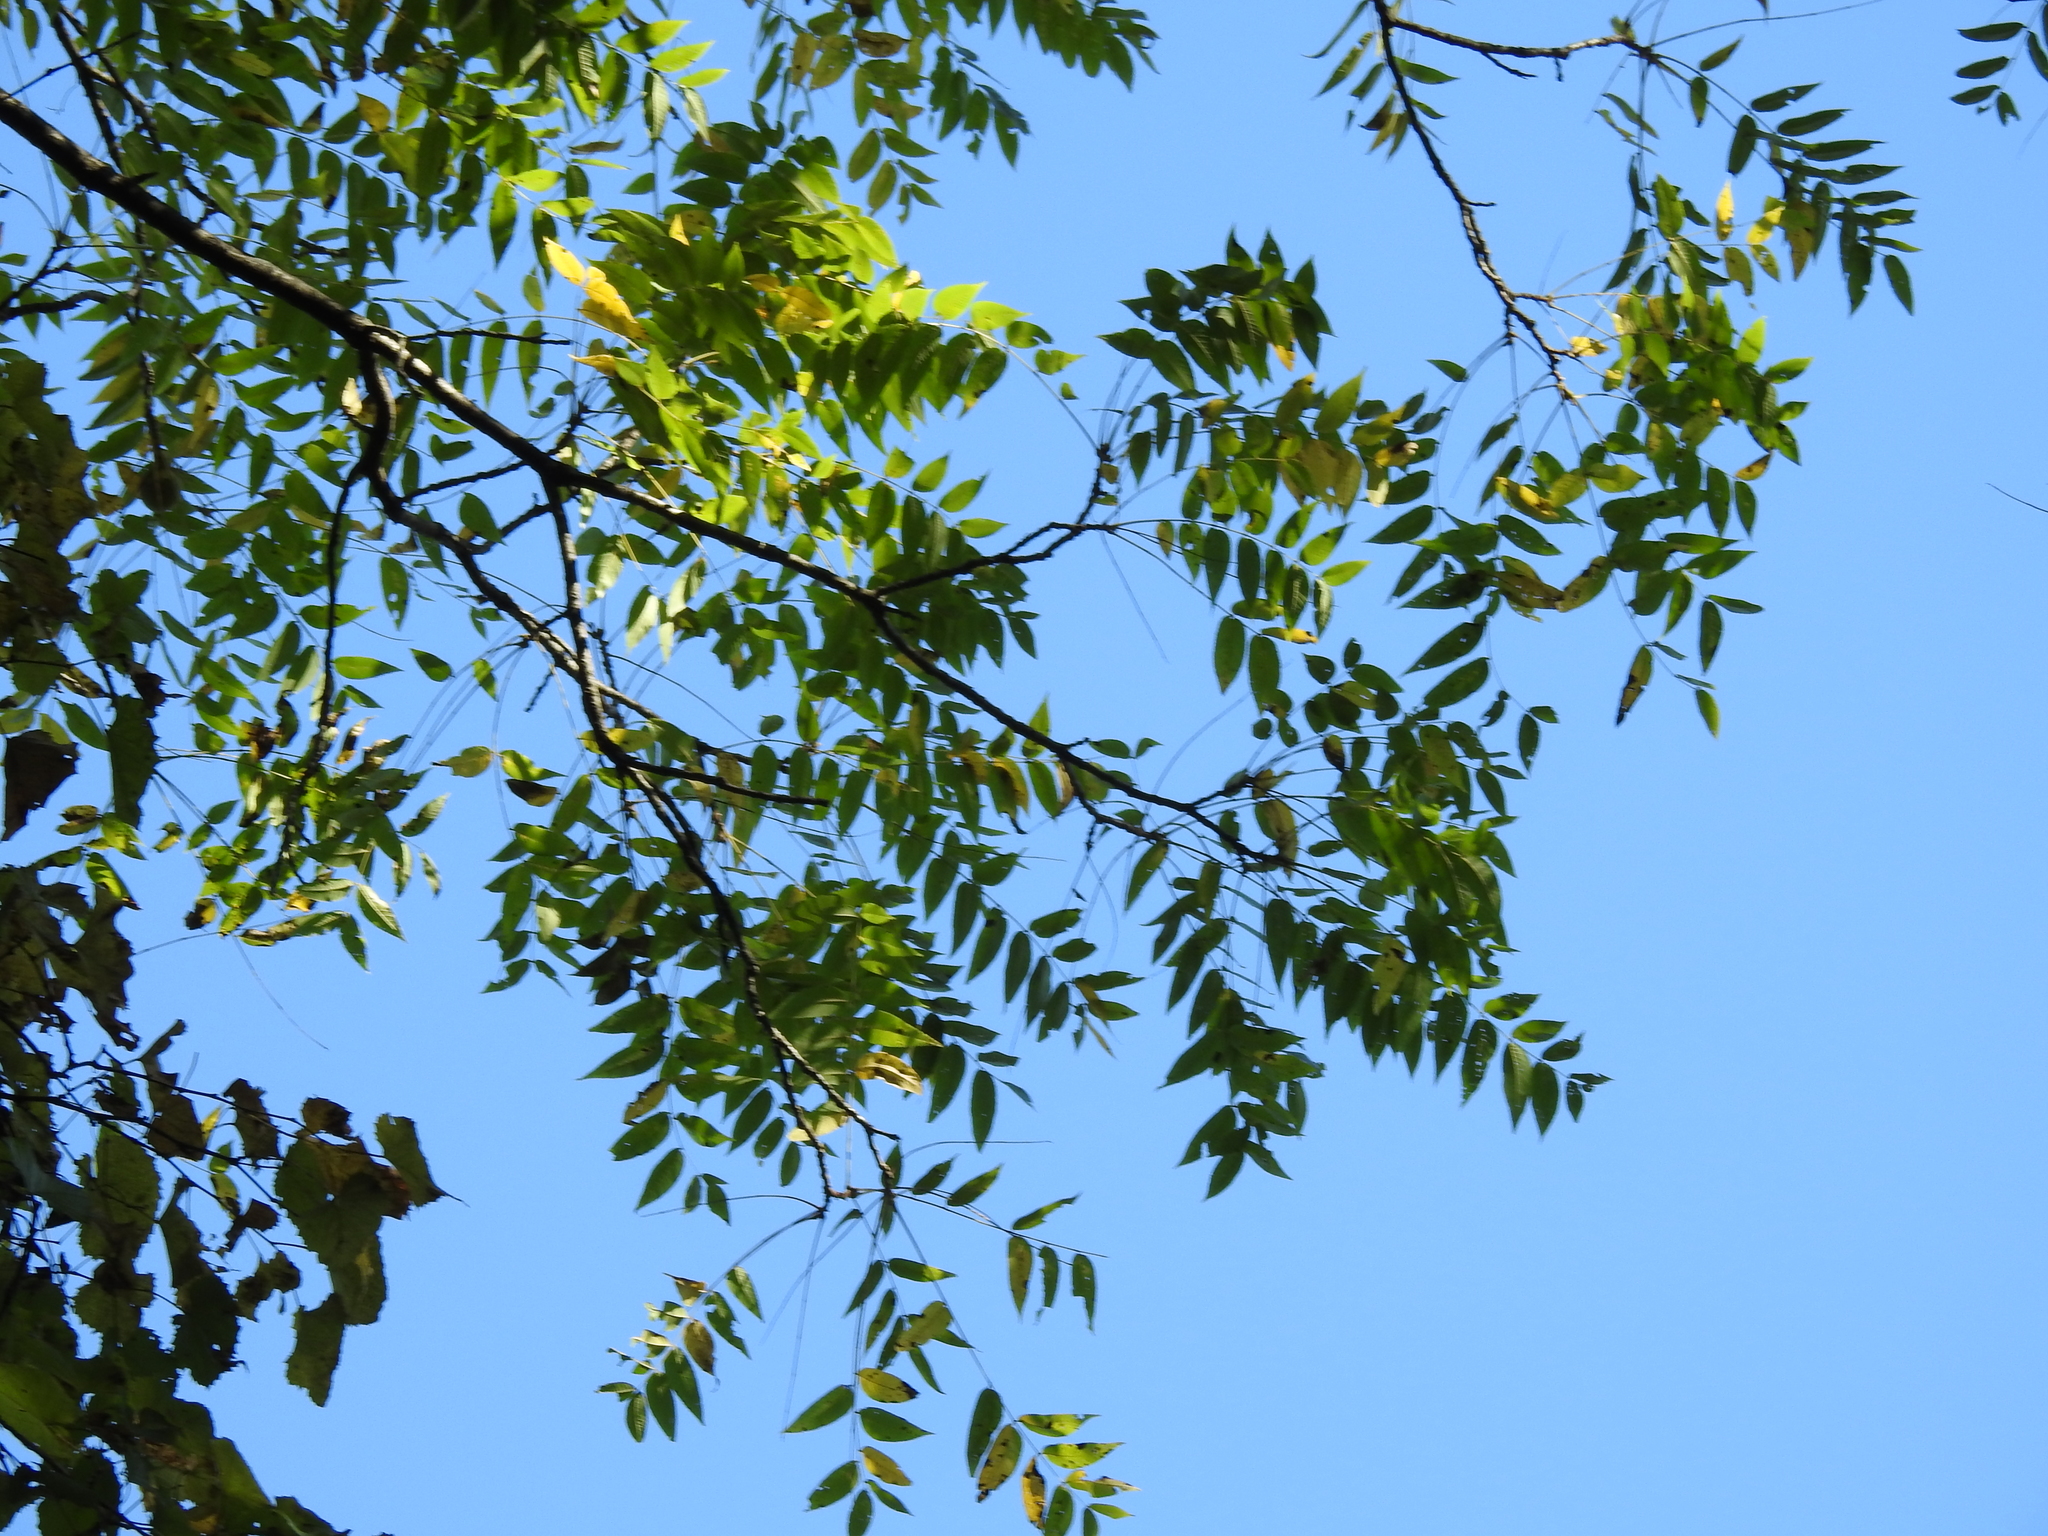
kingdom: Plantae
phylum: Tracheophyta
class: Magnoliopsida
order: Fagales
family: Juglandaceae
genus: Juglans
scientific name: Juglans nigra
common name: Black walnut
